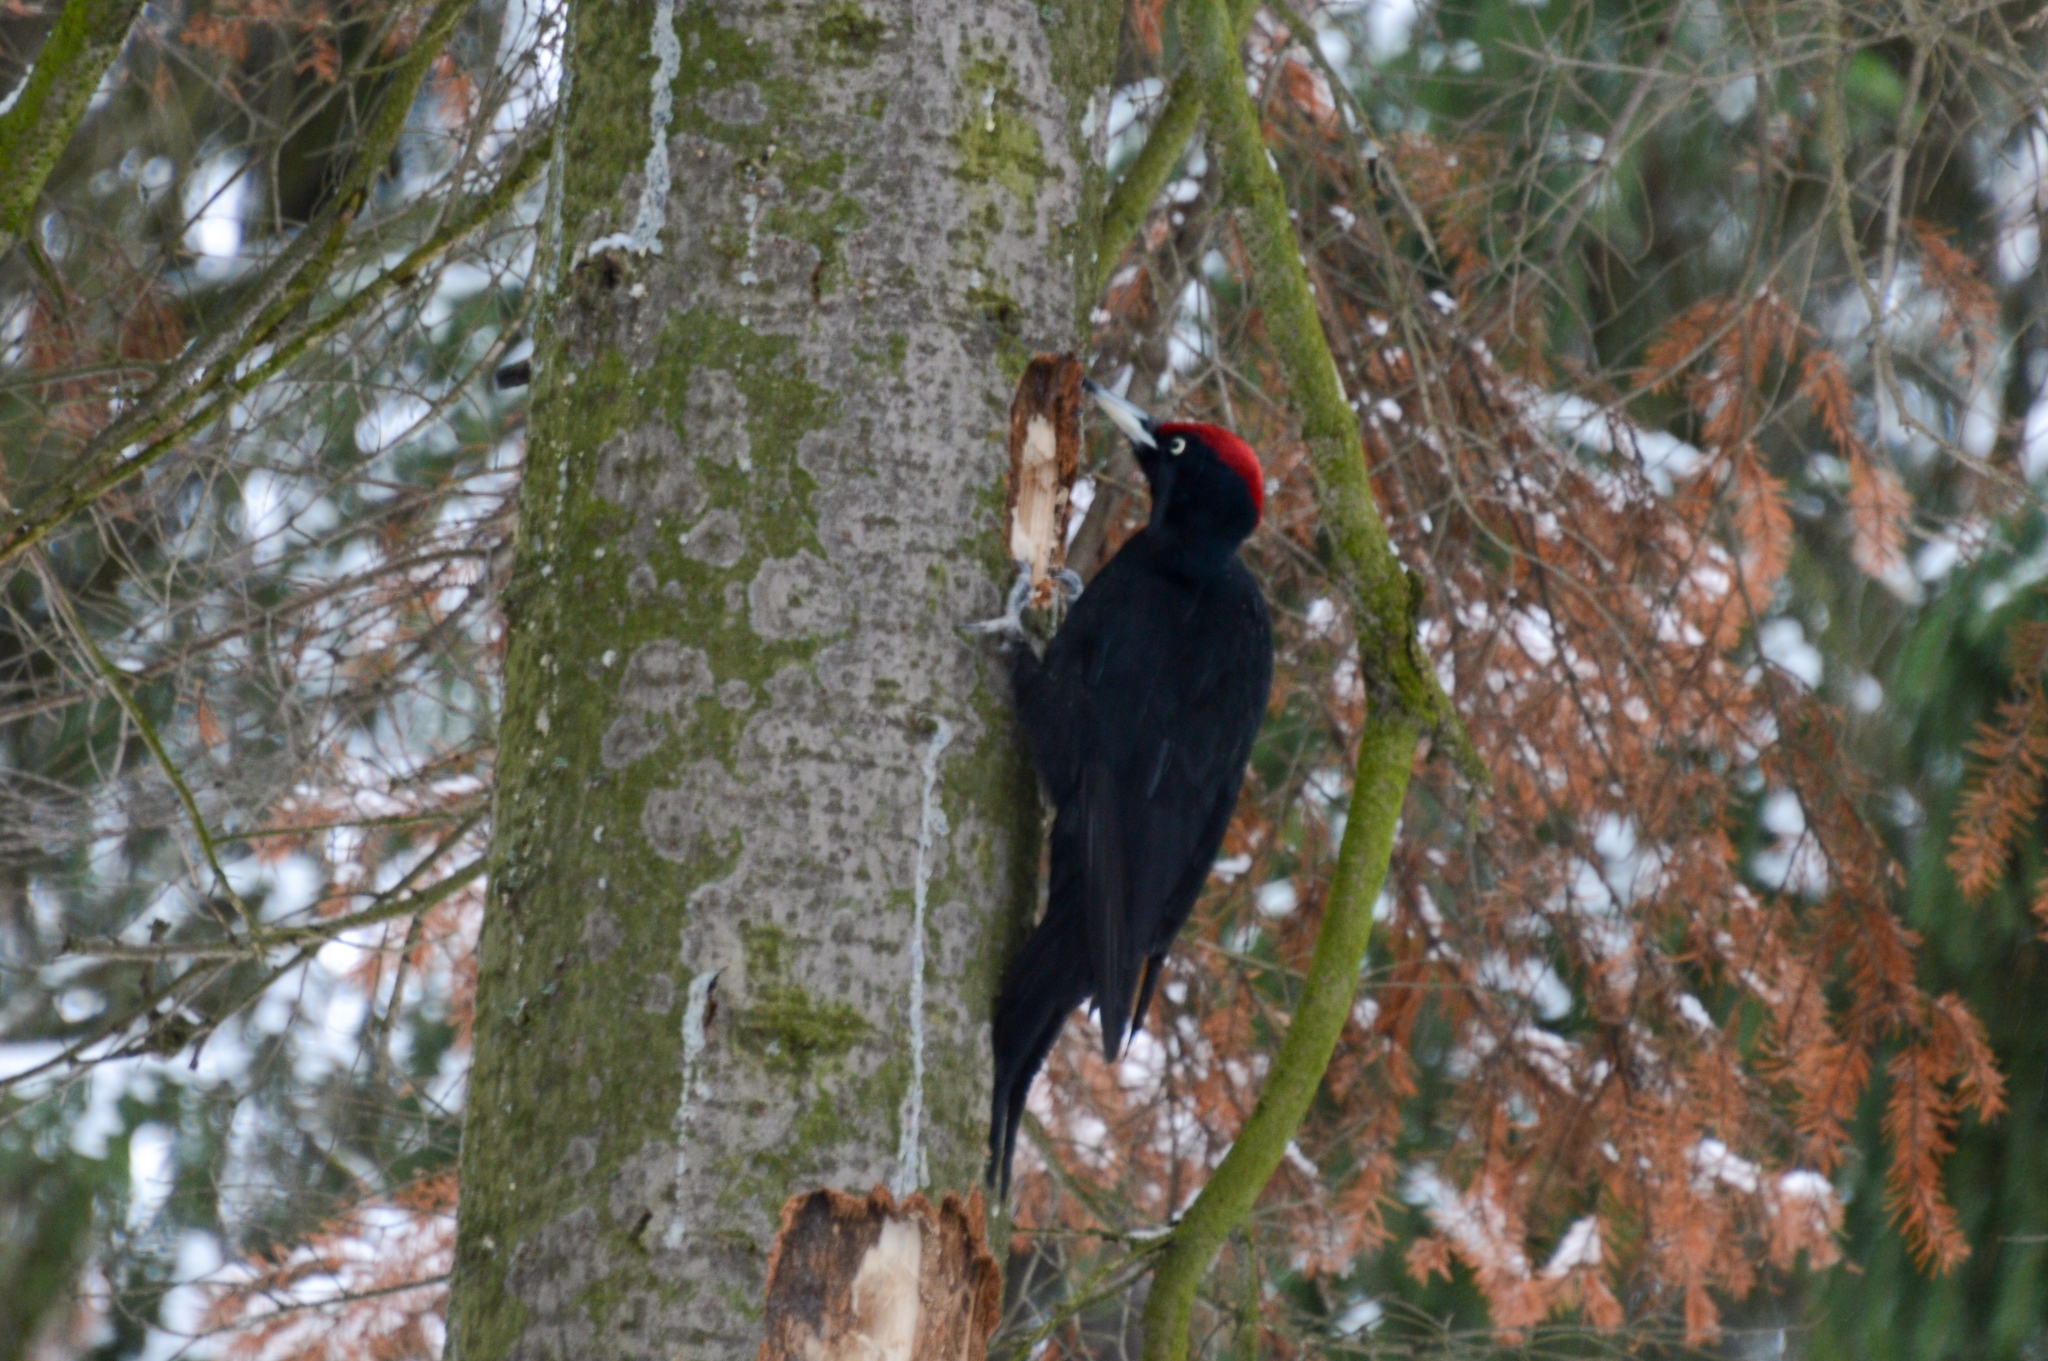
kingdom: Animalia
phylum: Chordata
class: Aves
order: Piciformes
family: Picidae
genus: Dryocopus
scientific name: Dryocopus martius
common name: Black woodpecker
